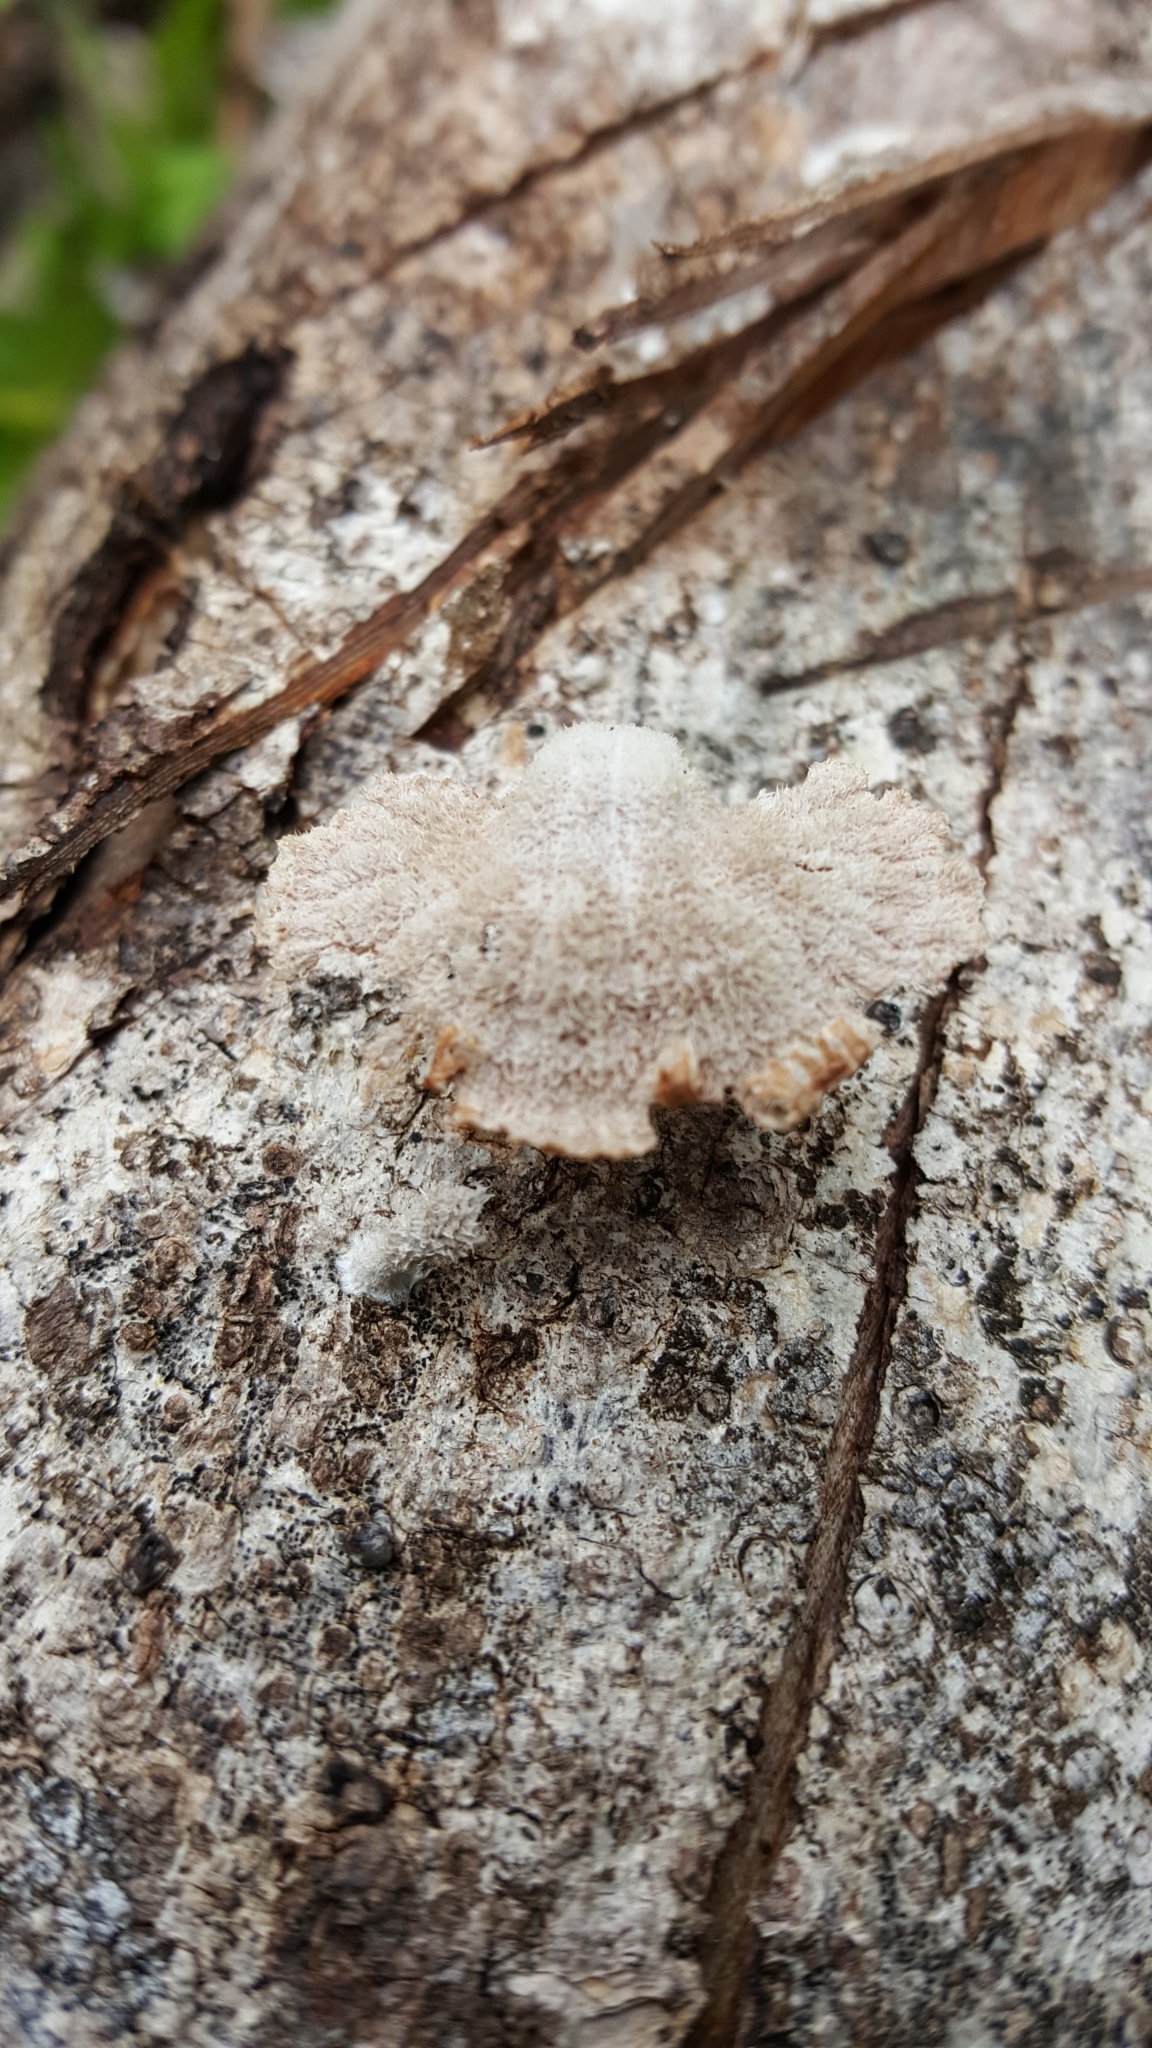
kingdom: Fungi
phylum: Basidiomycota
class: Agaricomycetes
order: Agaricales
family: Schizophyllaceae
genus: Schizophyllum
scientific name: Schizophyllum commune
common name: Common porecrust
